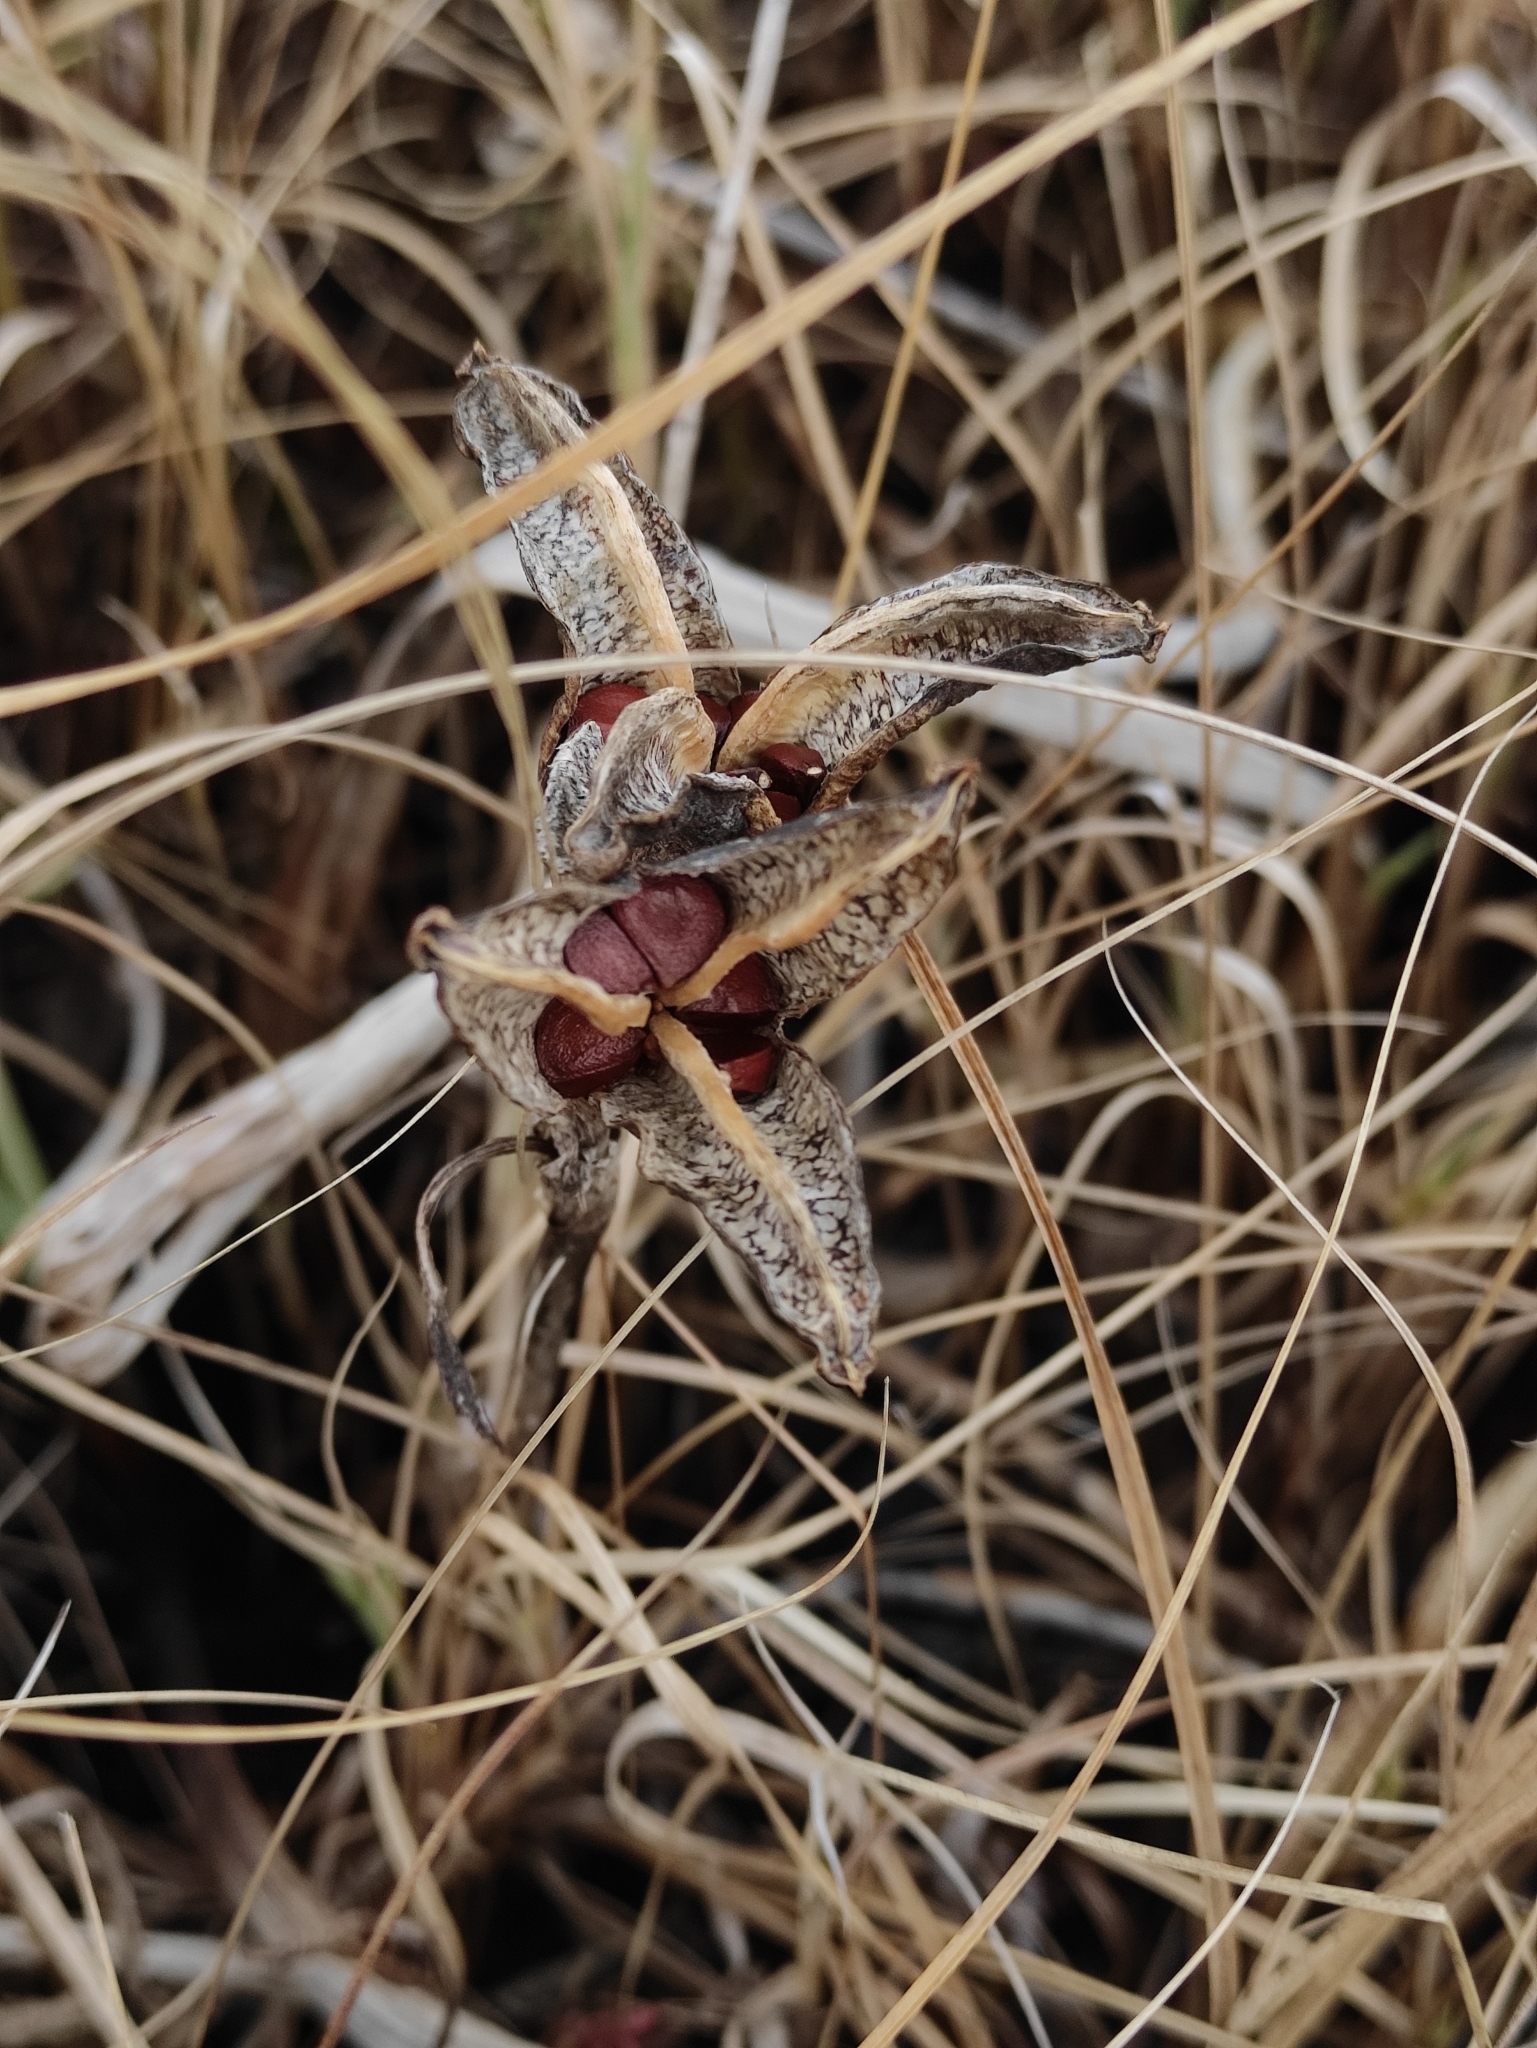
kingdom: Plantae
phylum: Tracheophyta
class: Liliopsida
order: Asparagales
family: Iridaceae
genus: Iris
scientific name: Iris laevigata
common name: Japanese iris
